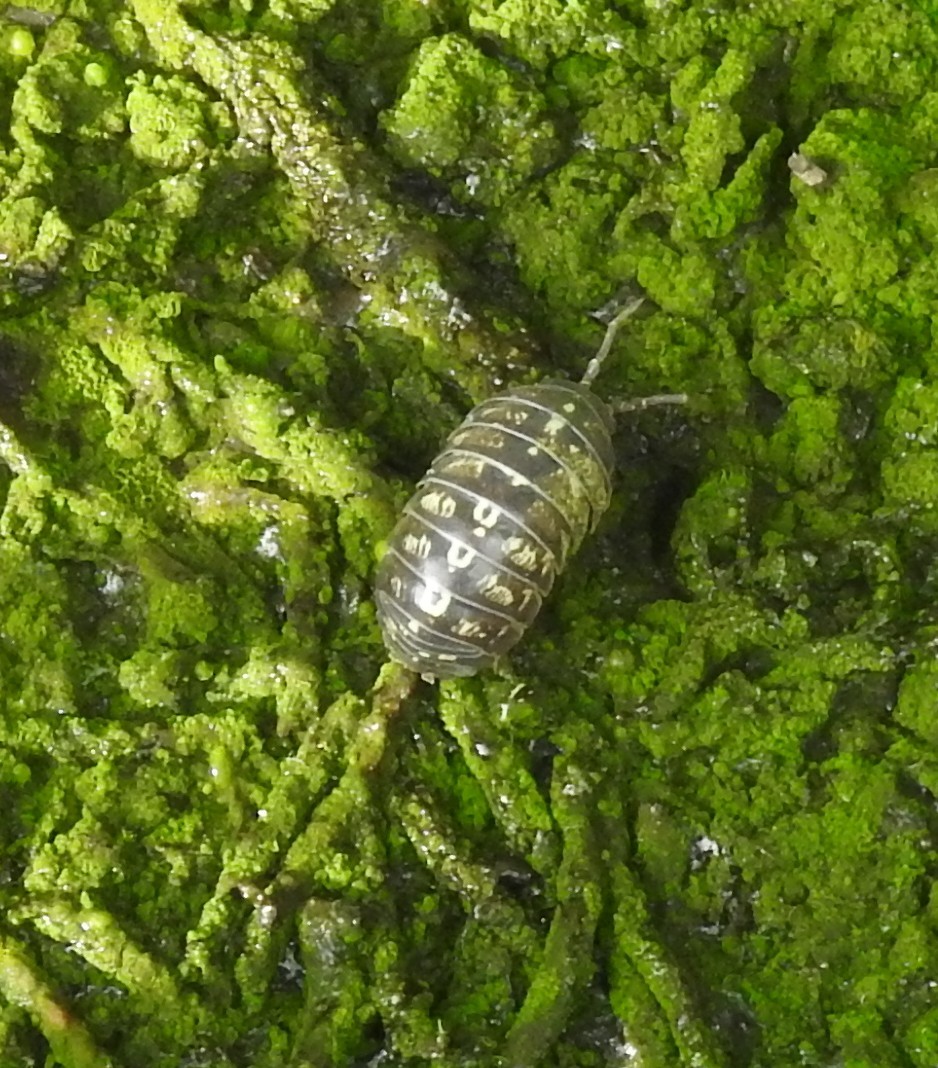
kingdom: Animalia
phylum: Arthropoda
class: Malacostraca
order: Isopoda
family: Armadillidiidae
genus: Armadillidium
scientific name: Armadillidium vulgare
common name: Common pill woodlouse
